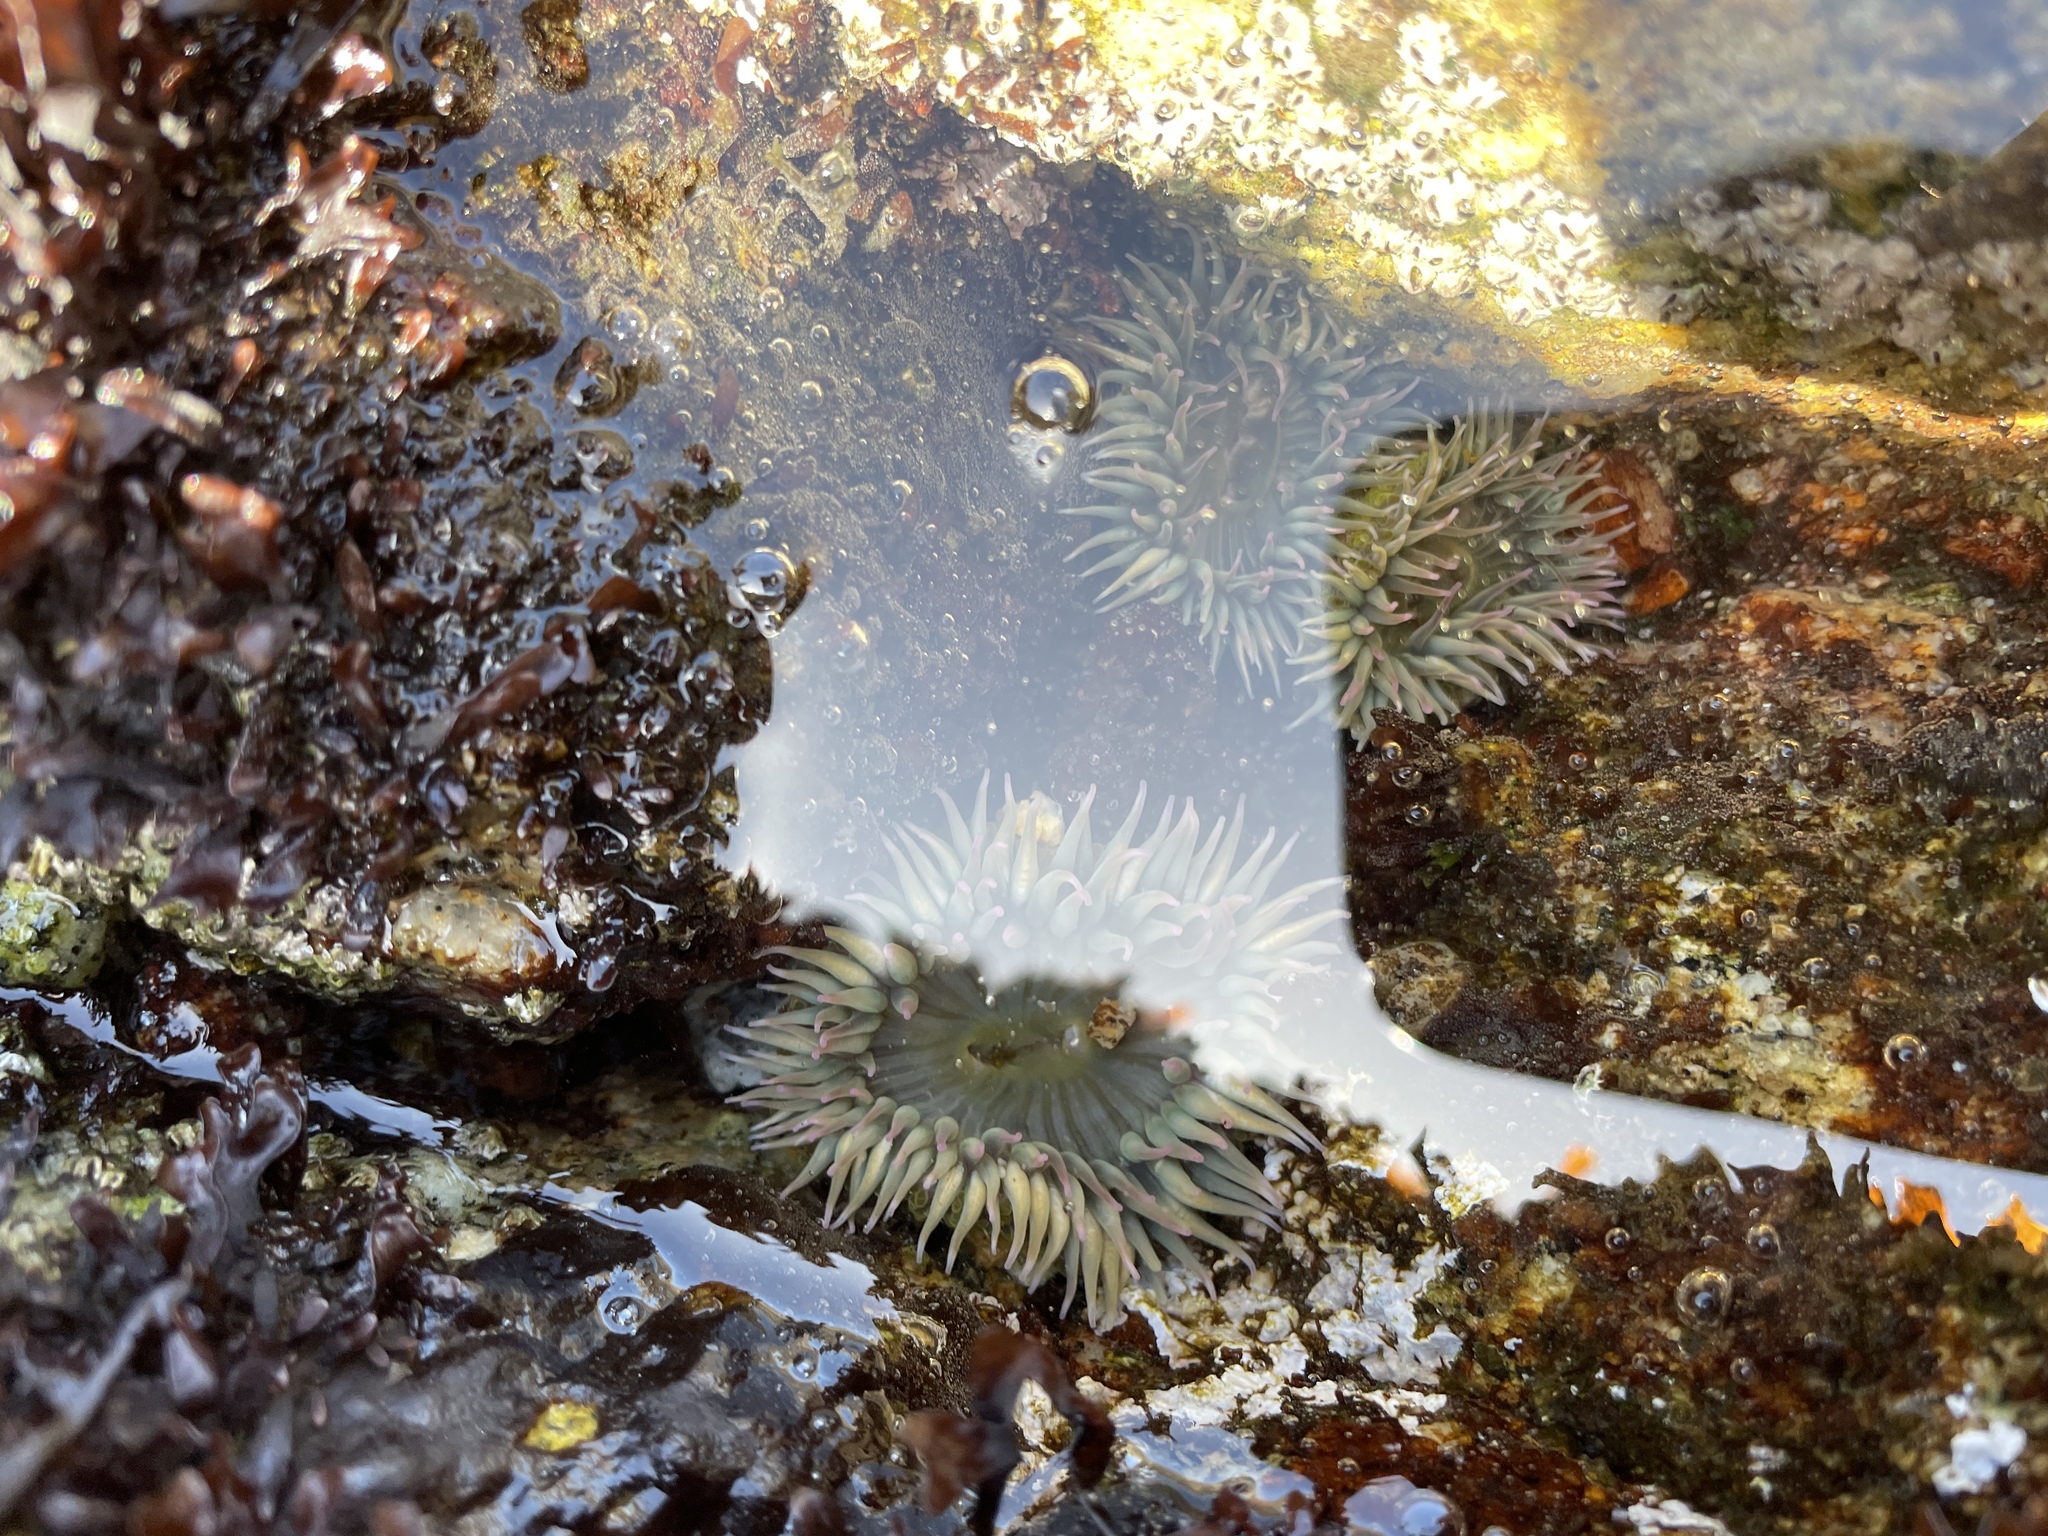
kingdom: Animalia
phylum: Cnidaria
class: Anthozoa
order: Actiniaria
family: Actiniidae
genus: Anthopleura
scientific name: Anthopleura elegantissima
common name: Clonal anemone
